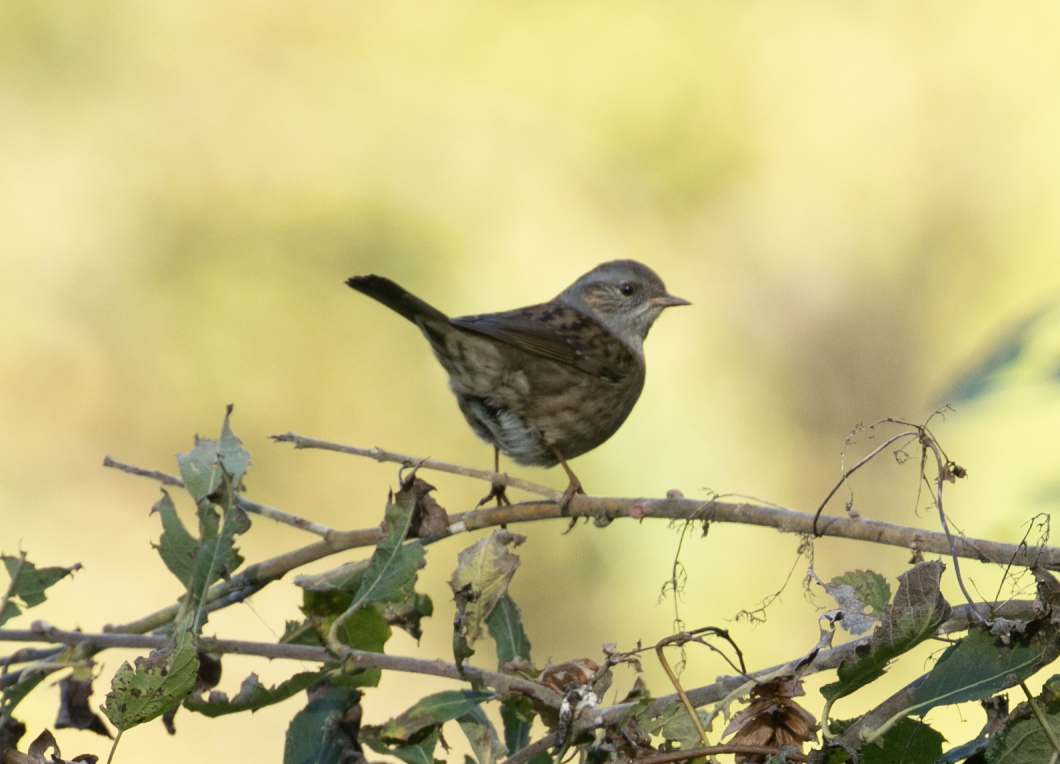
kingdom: Animalia
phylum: Chordata
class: Aves
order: Passeriformes
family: Prunellidae
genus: Prunella
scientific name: Prunella modularis
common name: Dunnock
